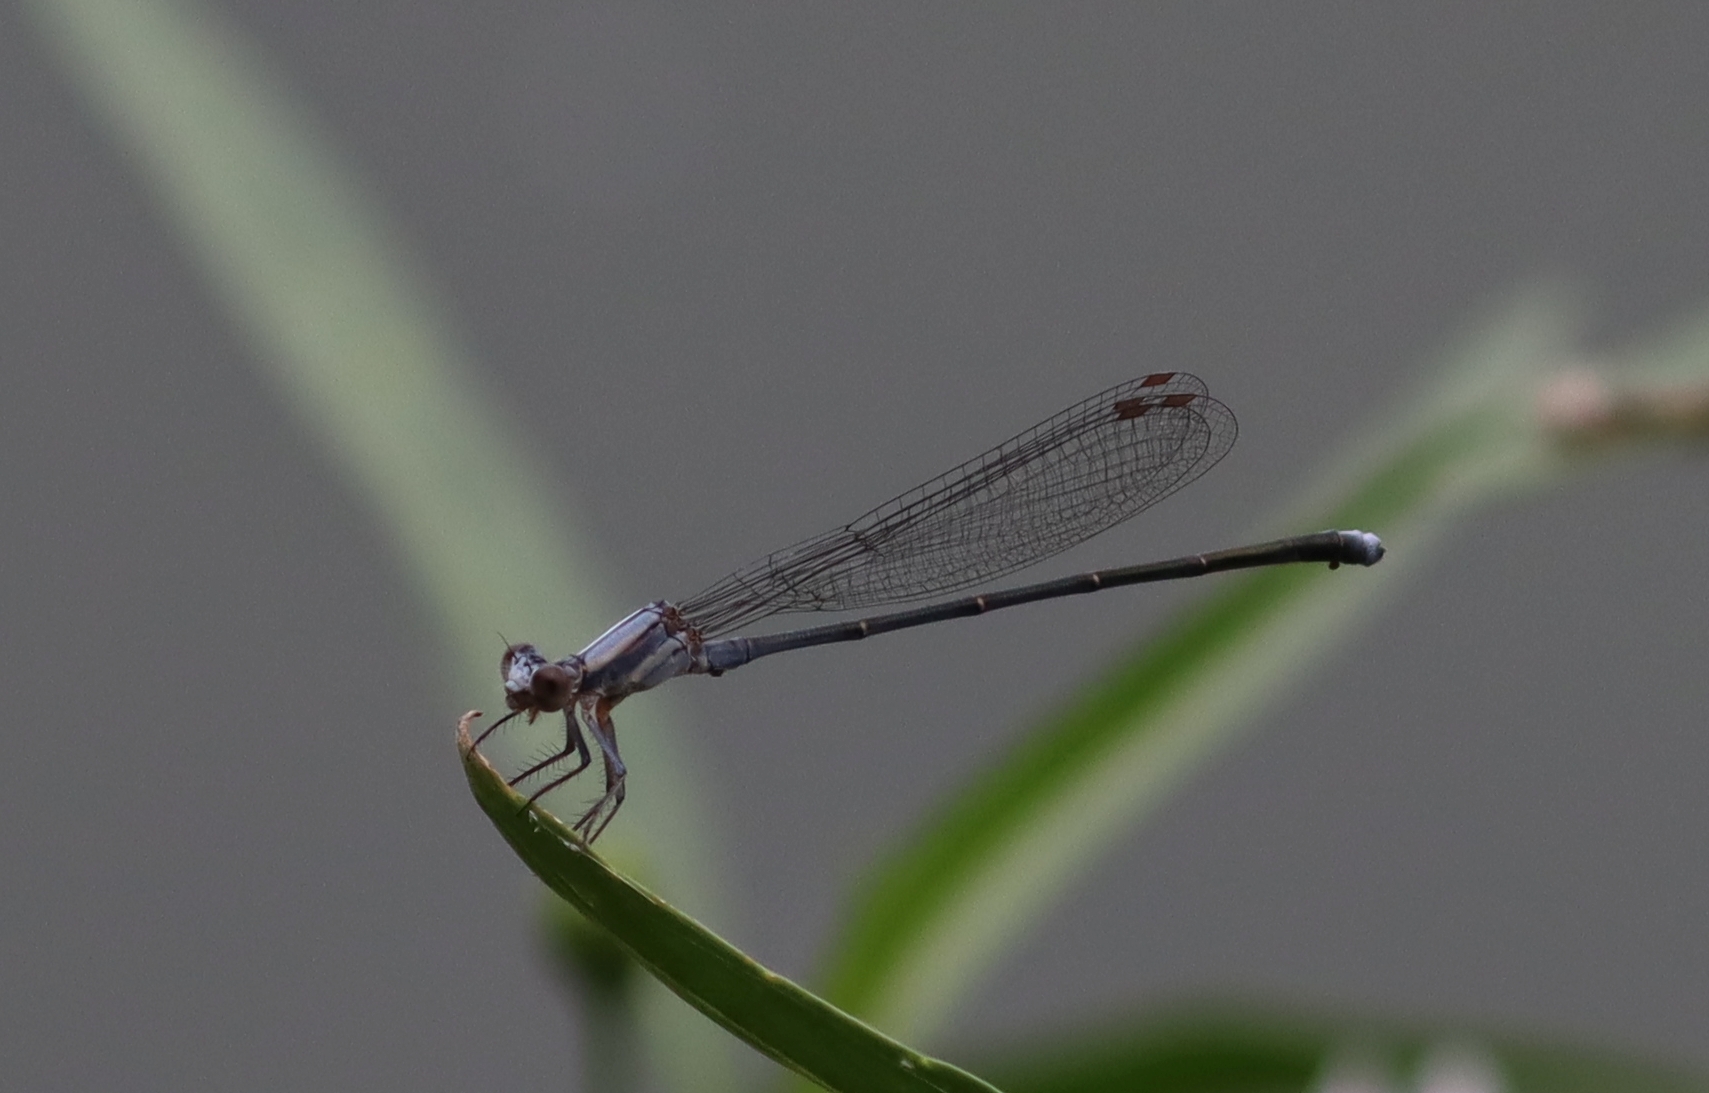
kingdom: Animalia
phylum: Arthropoda
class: Insecta
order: Odonata
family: Coenagrionidae
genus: Argia
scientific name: Argia moesta
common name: Powdered dancer
